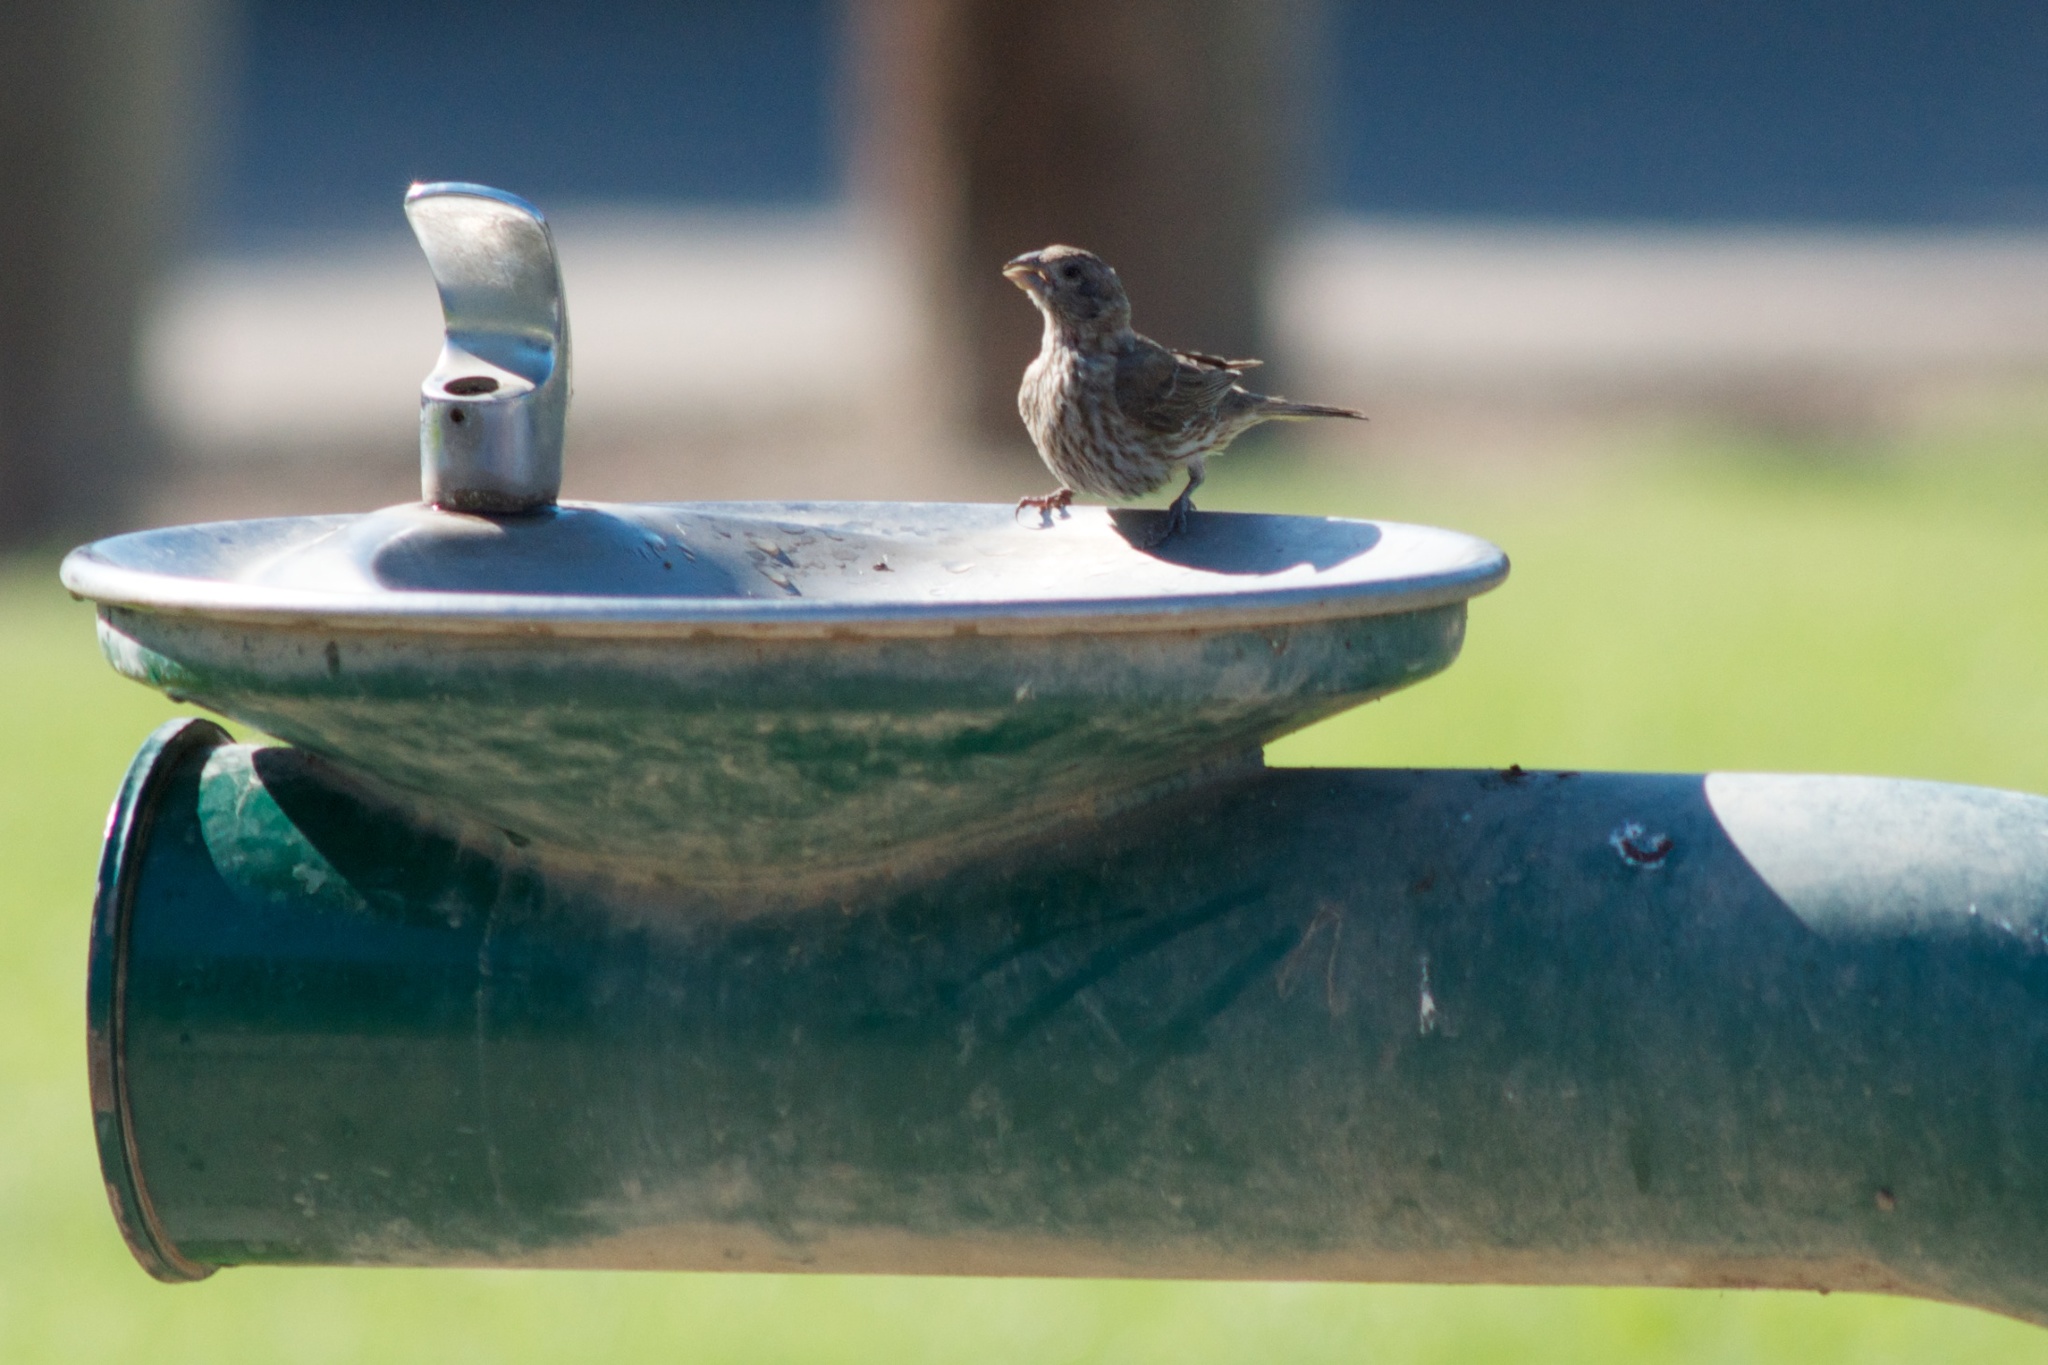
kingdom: Animalia
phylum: Chordata
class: Aves
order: Passeriformes
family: Fringillidae
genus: Haemorhous
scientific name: Haemorhous mexicanus
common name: House finch
